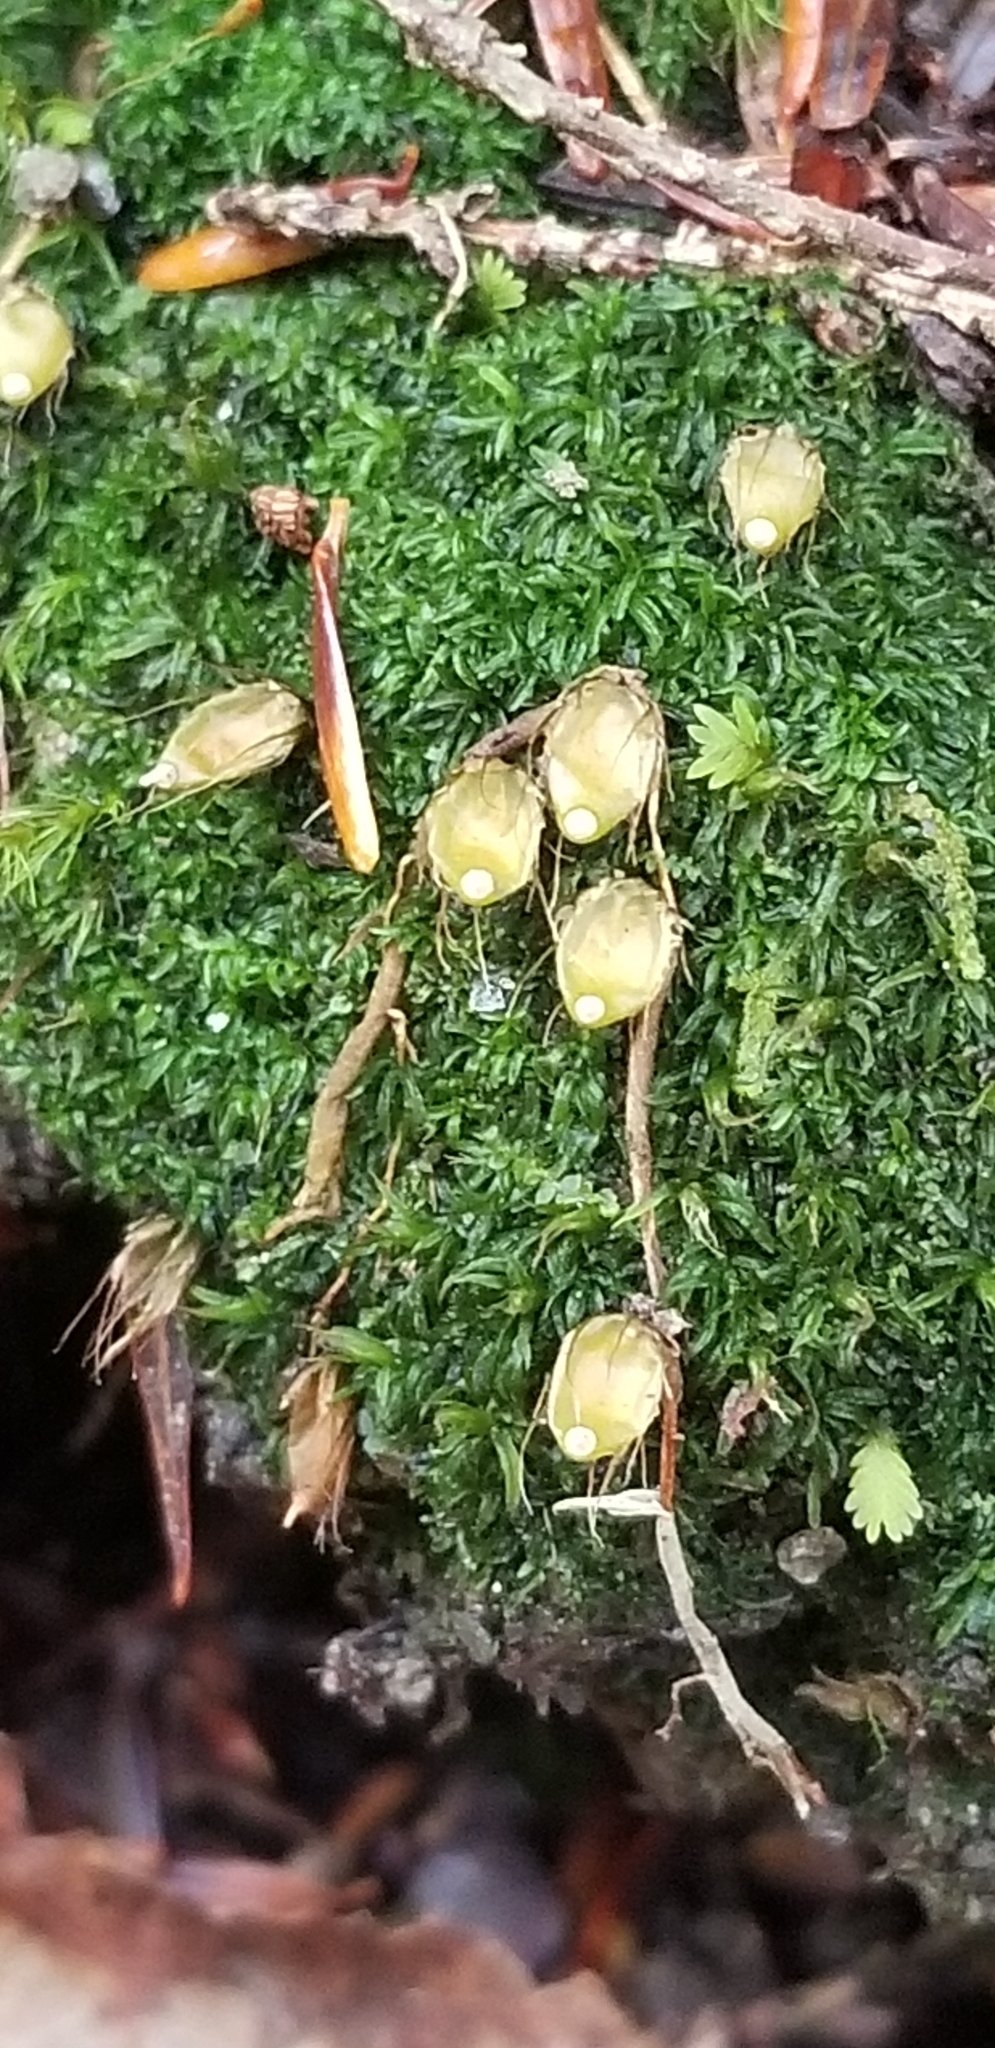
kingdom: Plantae
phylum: Bryophyta
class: Bryopsida
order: Diphysciales
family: Diphysciaceae
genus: Diphyscium
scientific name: Diphyscium foliosum
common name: Nut moss
